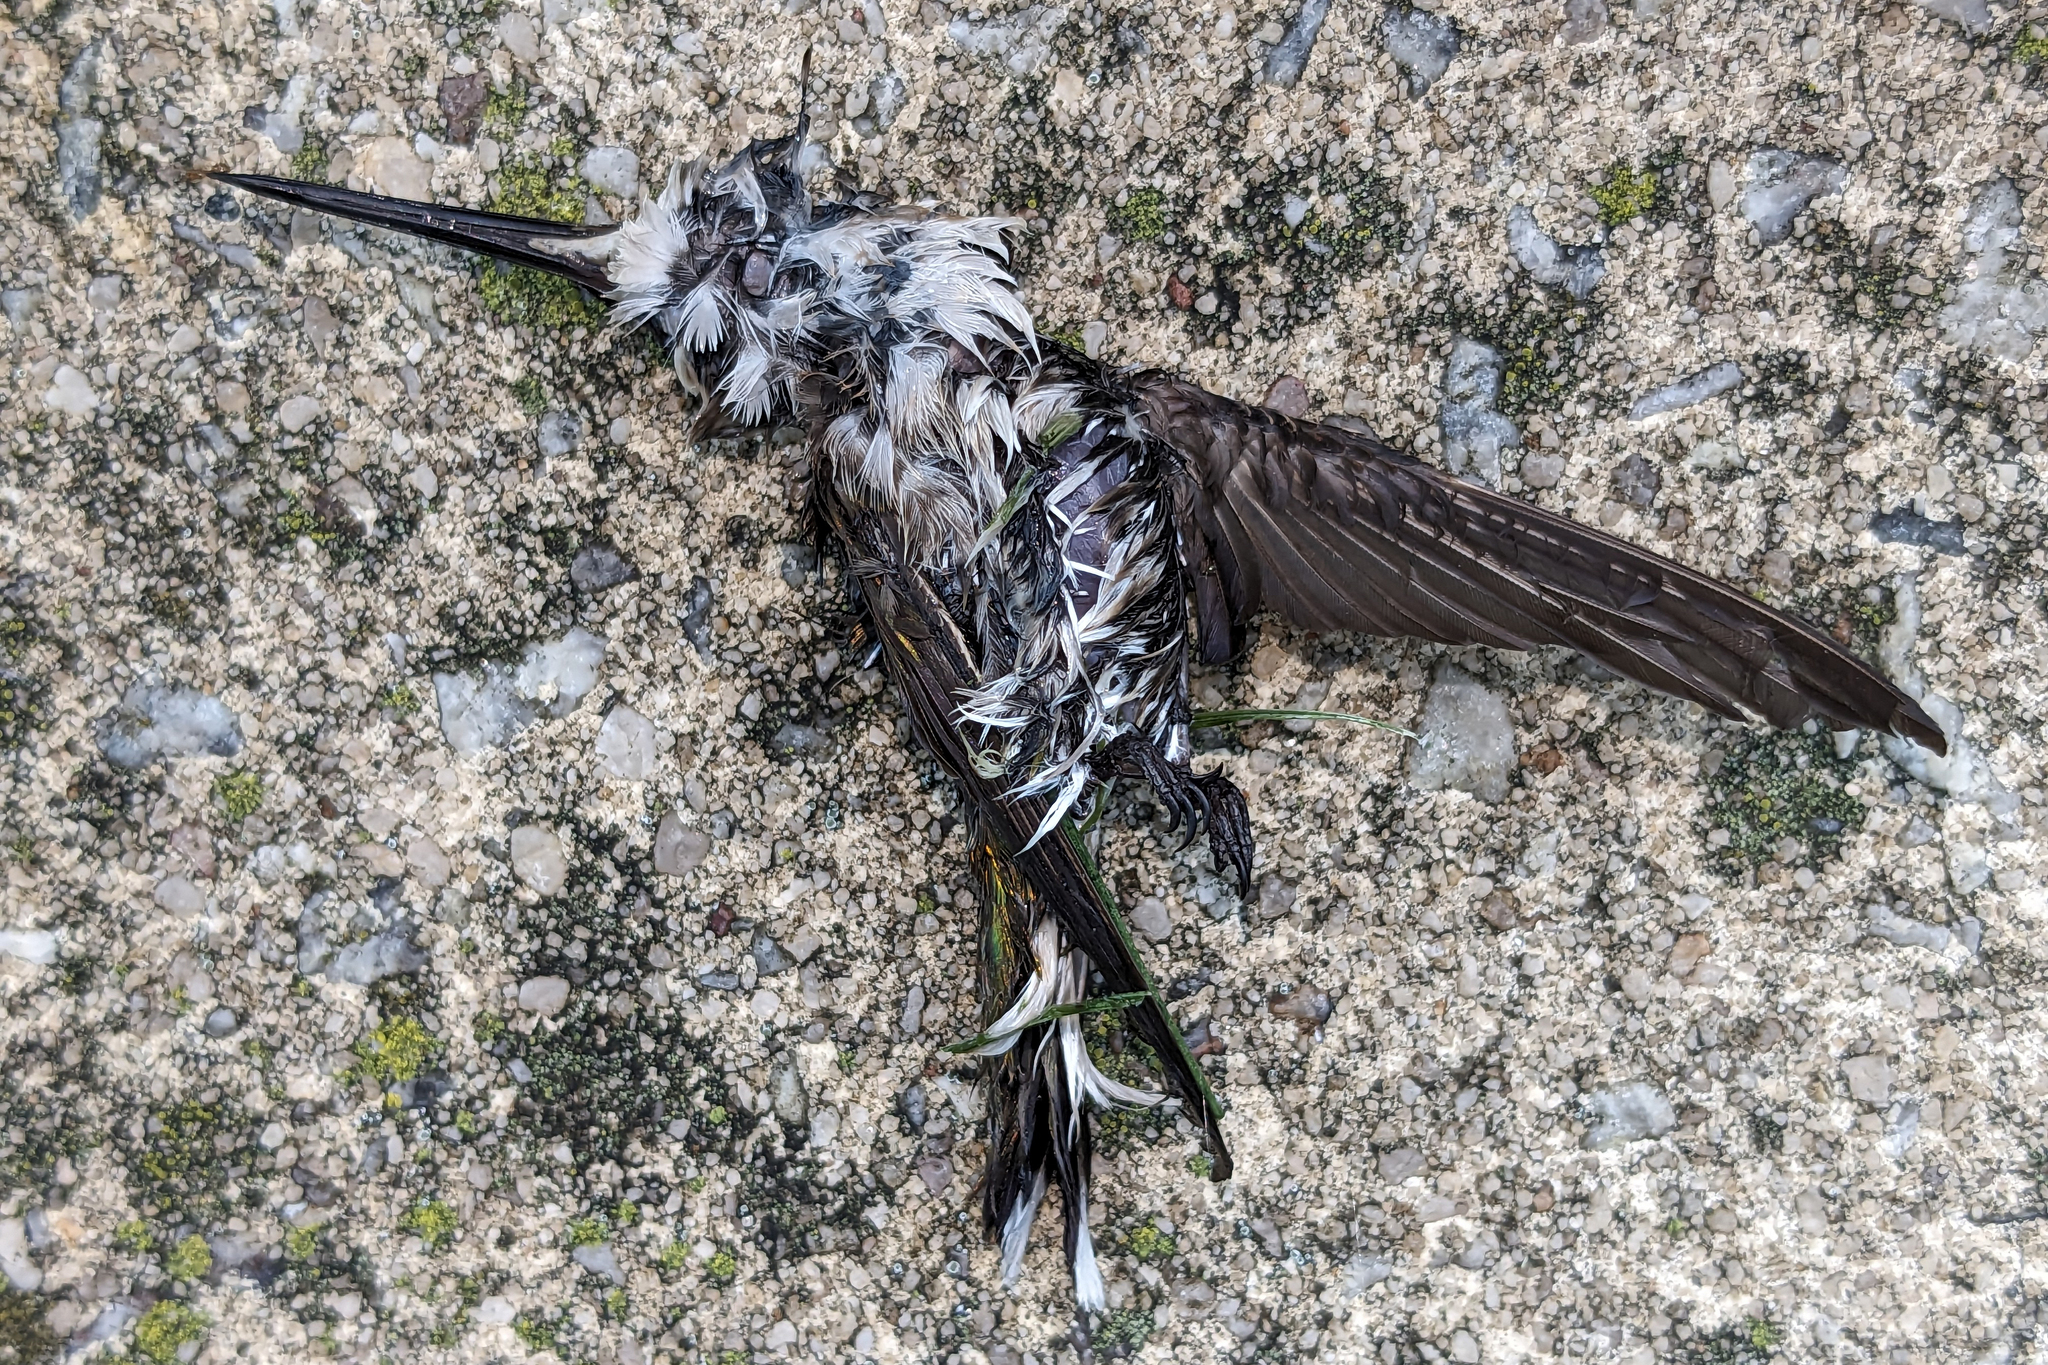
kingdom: Animalia
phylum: Chordata
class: Aves
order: Apodiformes
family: Trochilidae
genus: Archilochus
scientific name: Archilochus colubris
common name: Ruby-throated hummingbird
